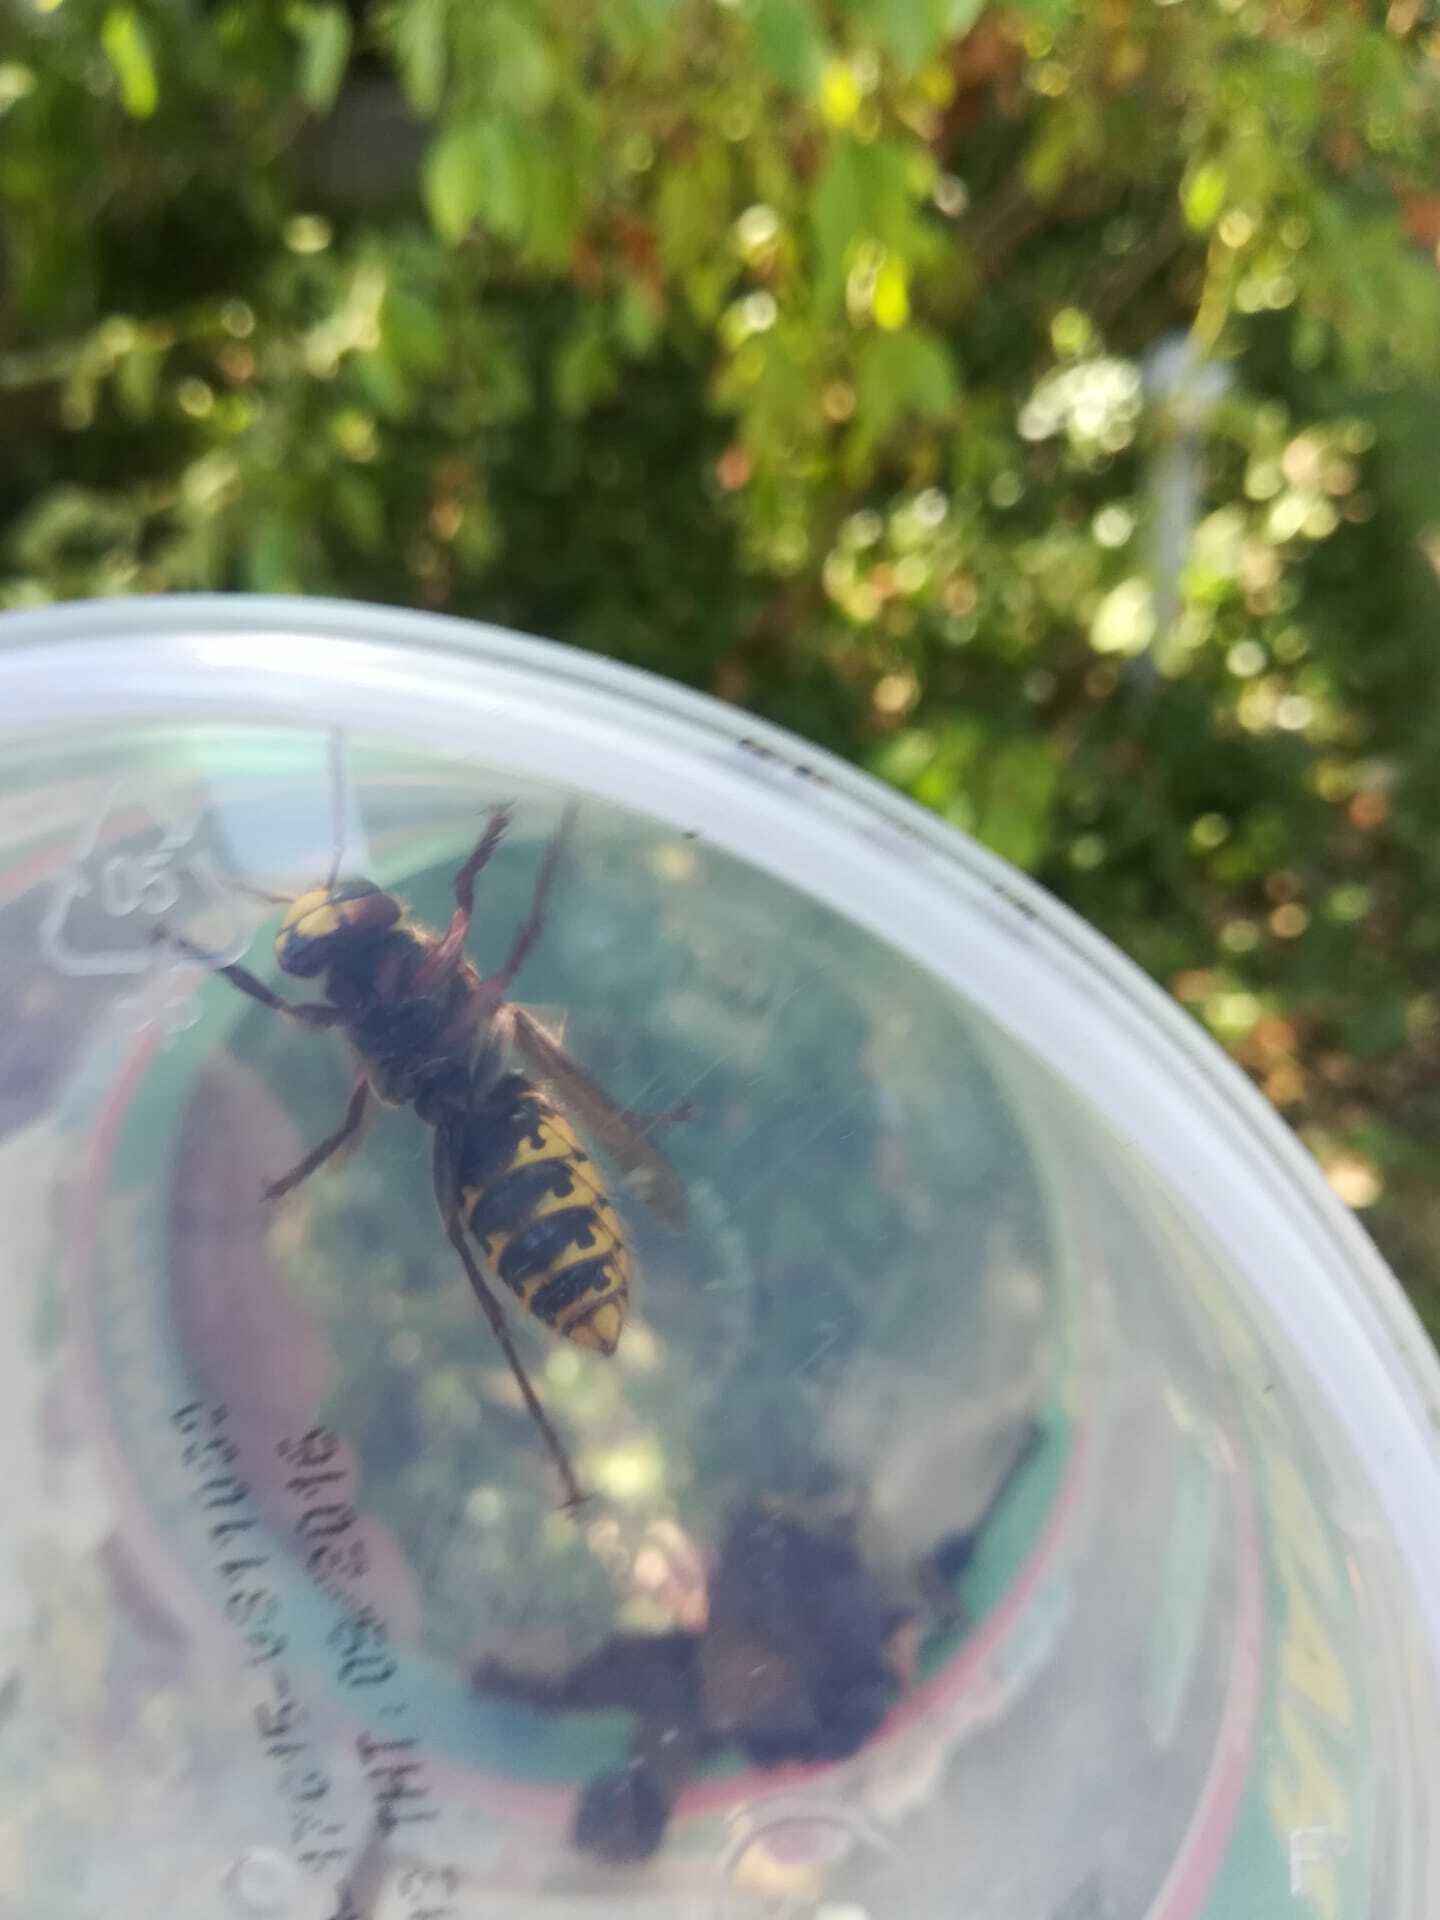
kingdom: Animalia
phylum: Arthropoda
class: Insecta
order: Hymenoptera
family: Vespidae
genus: Vespa
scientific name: Vespa crabro
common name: Hornet
